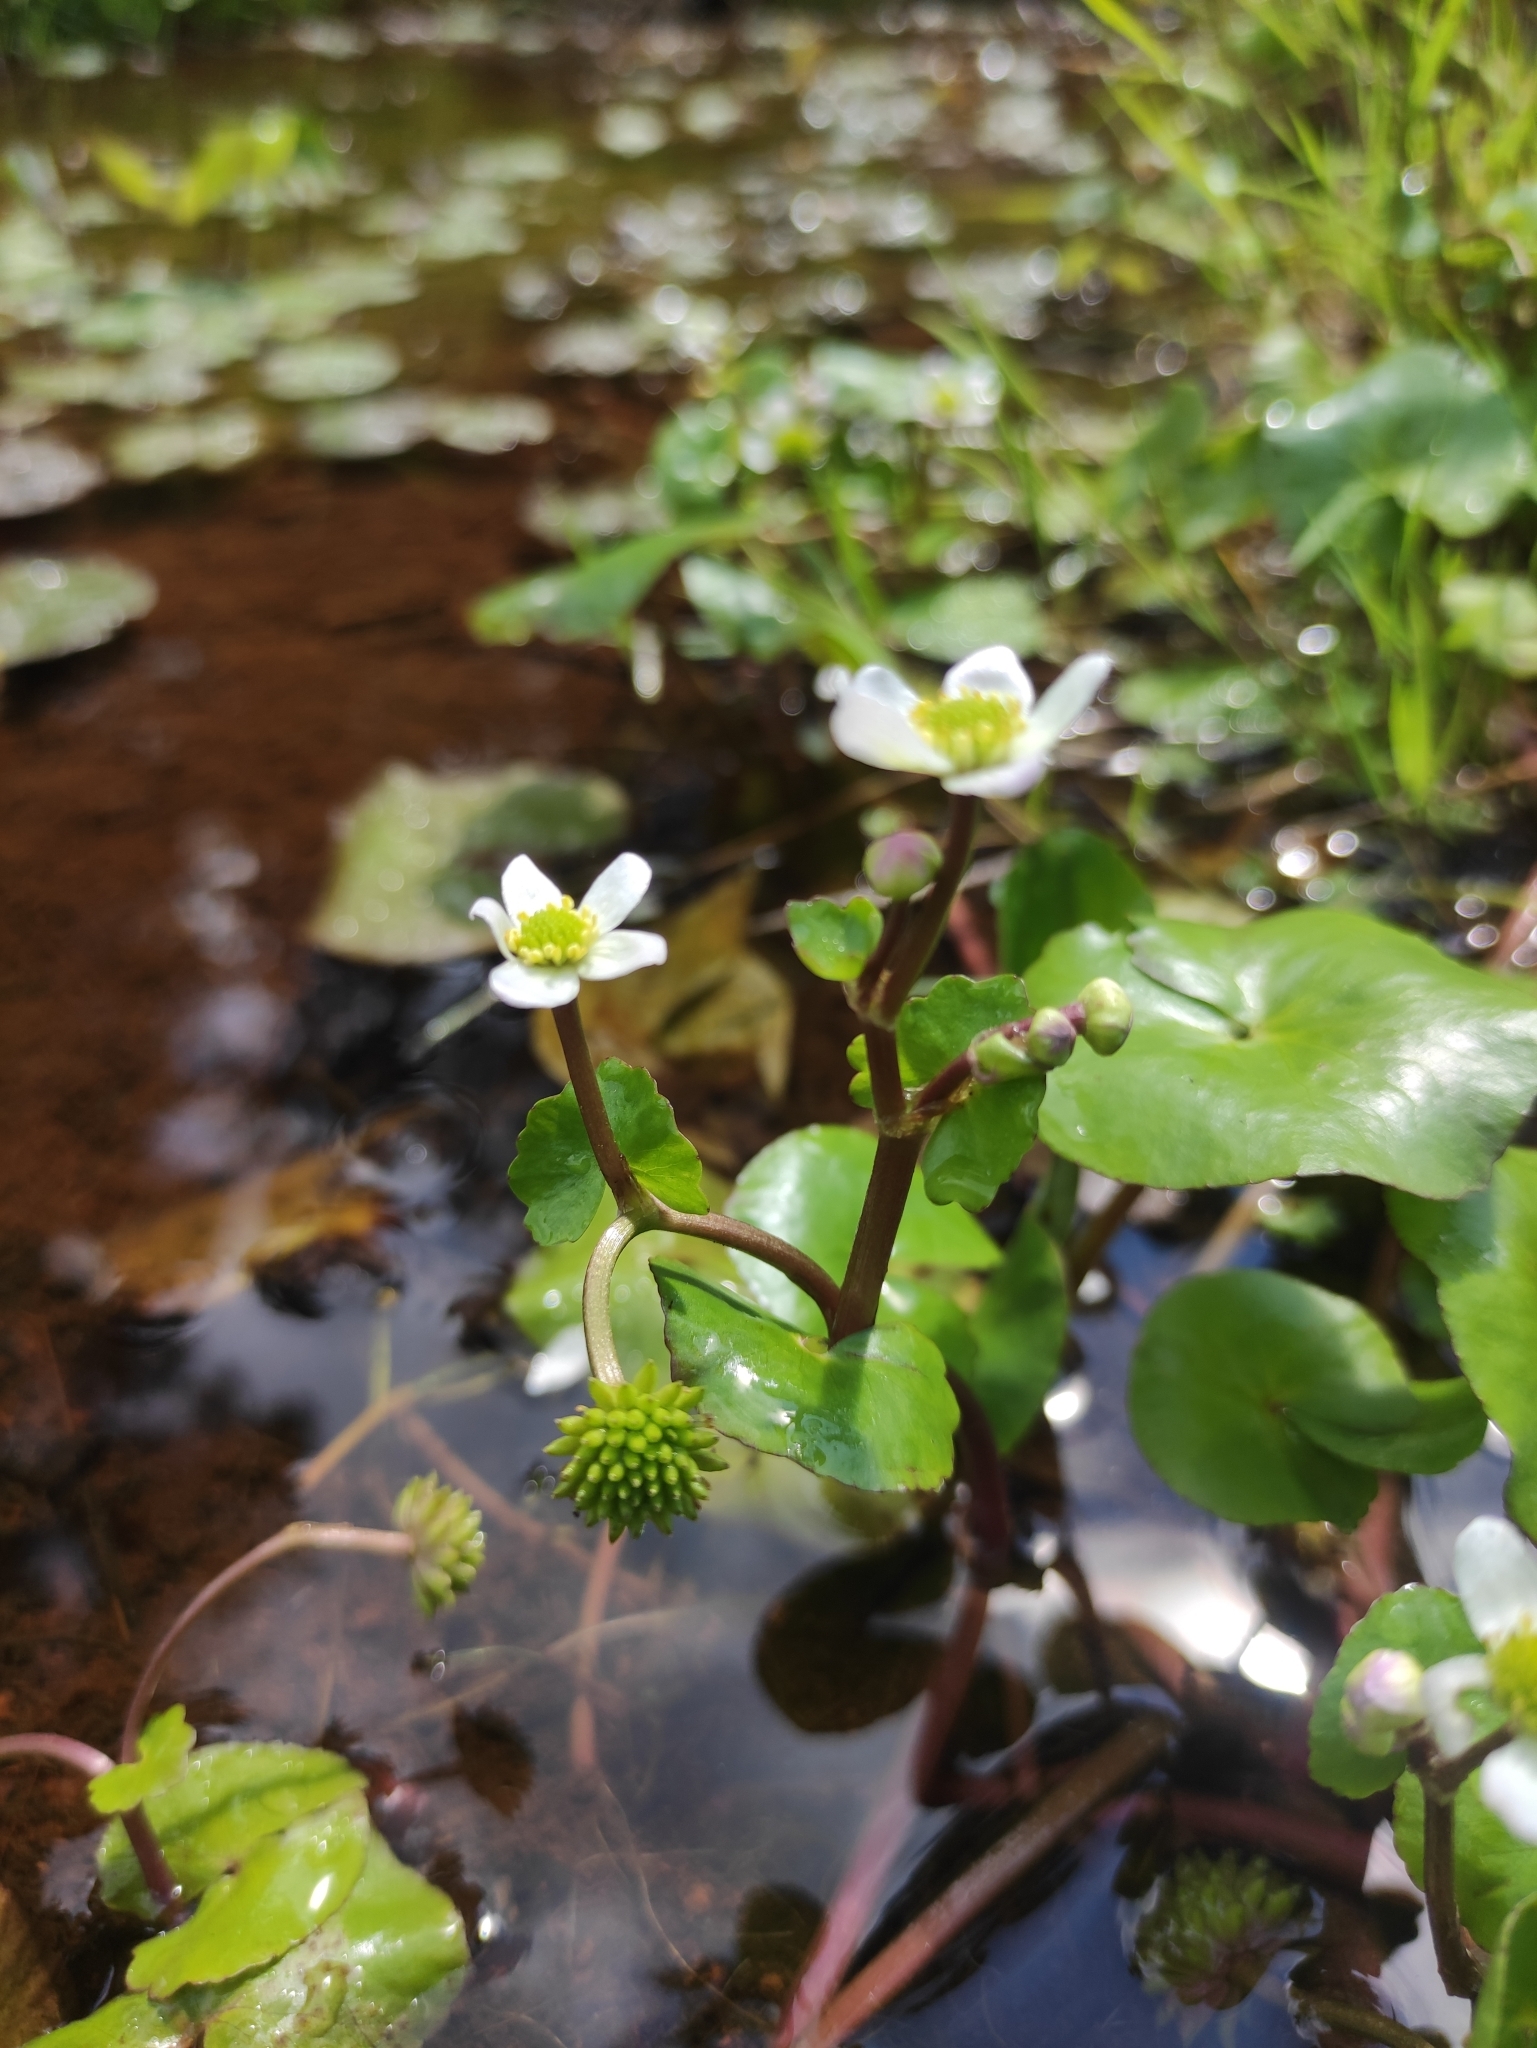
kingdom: Plantae
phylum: Tracheophyta
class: Magnoliopsida
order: Ranunculales
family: Ranunculaceae
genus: Caltha
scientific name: Caltha natans
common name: Floating marsh marigold
